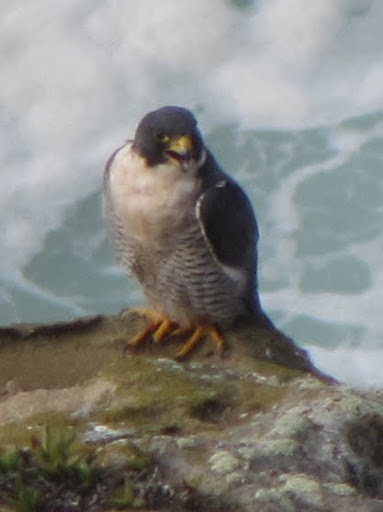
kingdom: Animalia
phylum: Chordata
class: Aves
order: Falconiformes
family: Falconidae
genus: Falco
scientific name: Falco peregrinus
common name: Peregrine falcon
